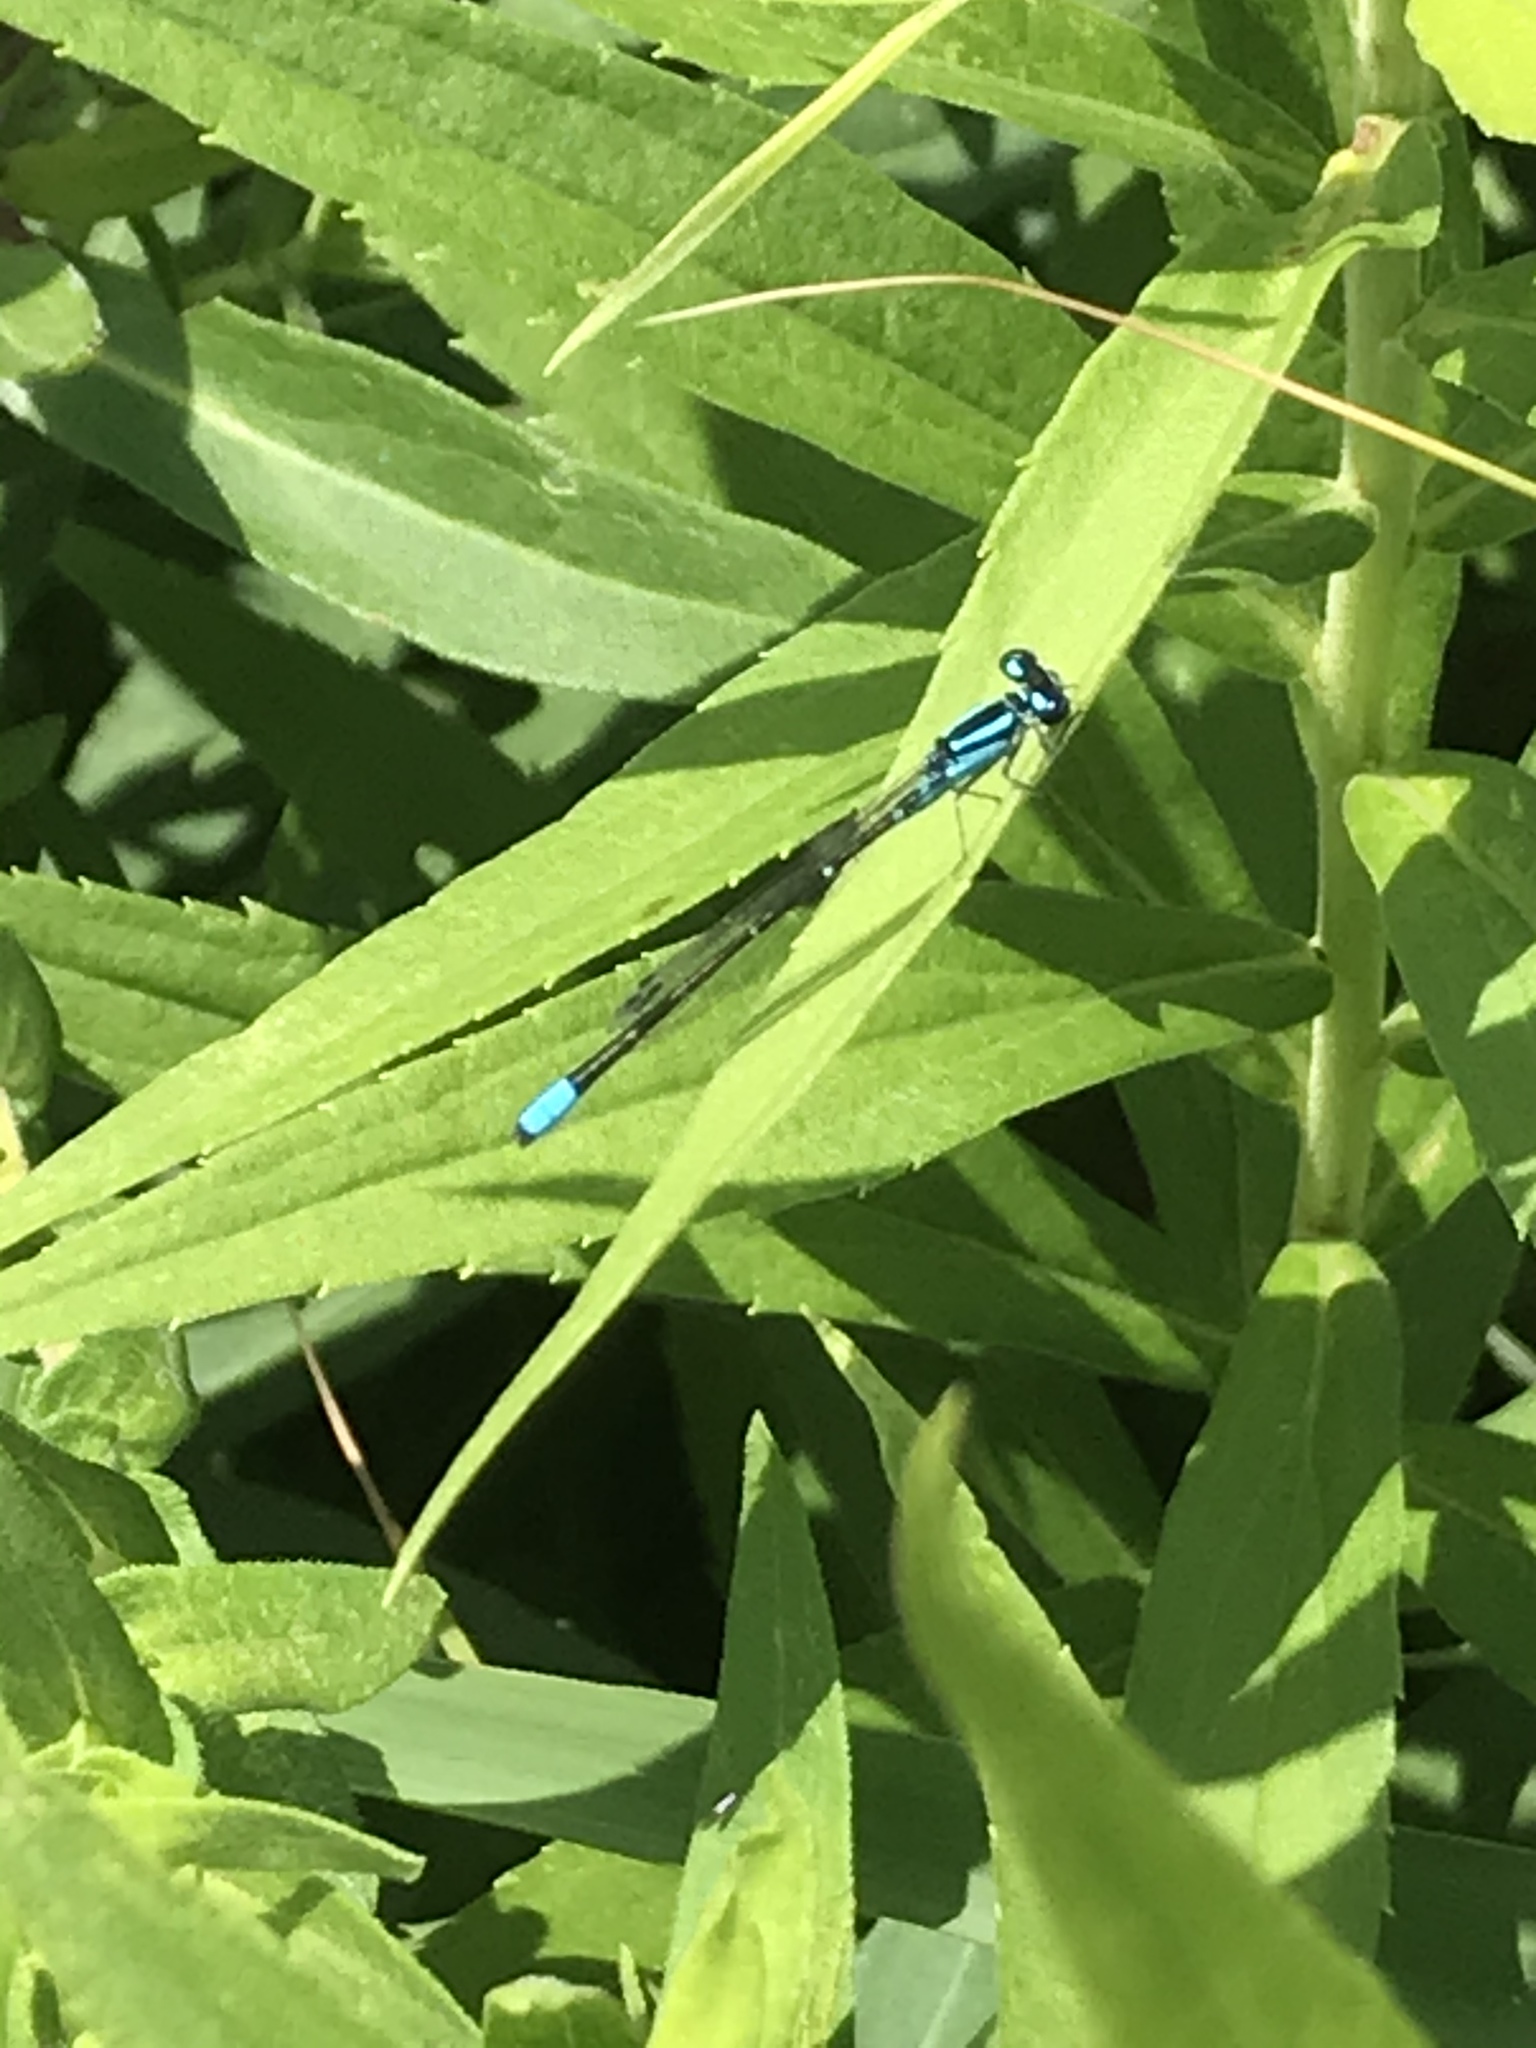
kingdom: Animalia
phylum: Arthropoda
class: Insecta
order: Odonata
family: Coenagrionidae
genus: Enallagma
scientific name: Enallagma geminatum
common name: Skimming bluet
